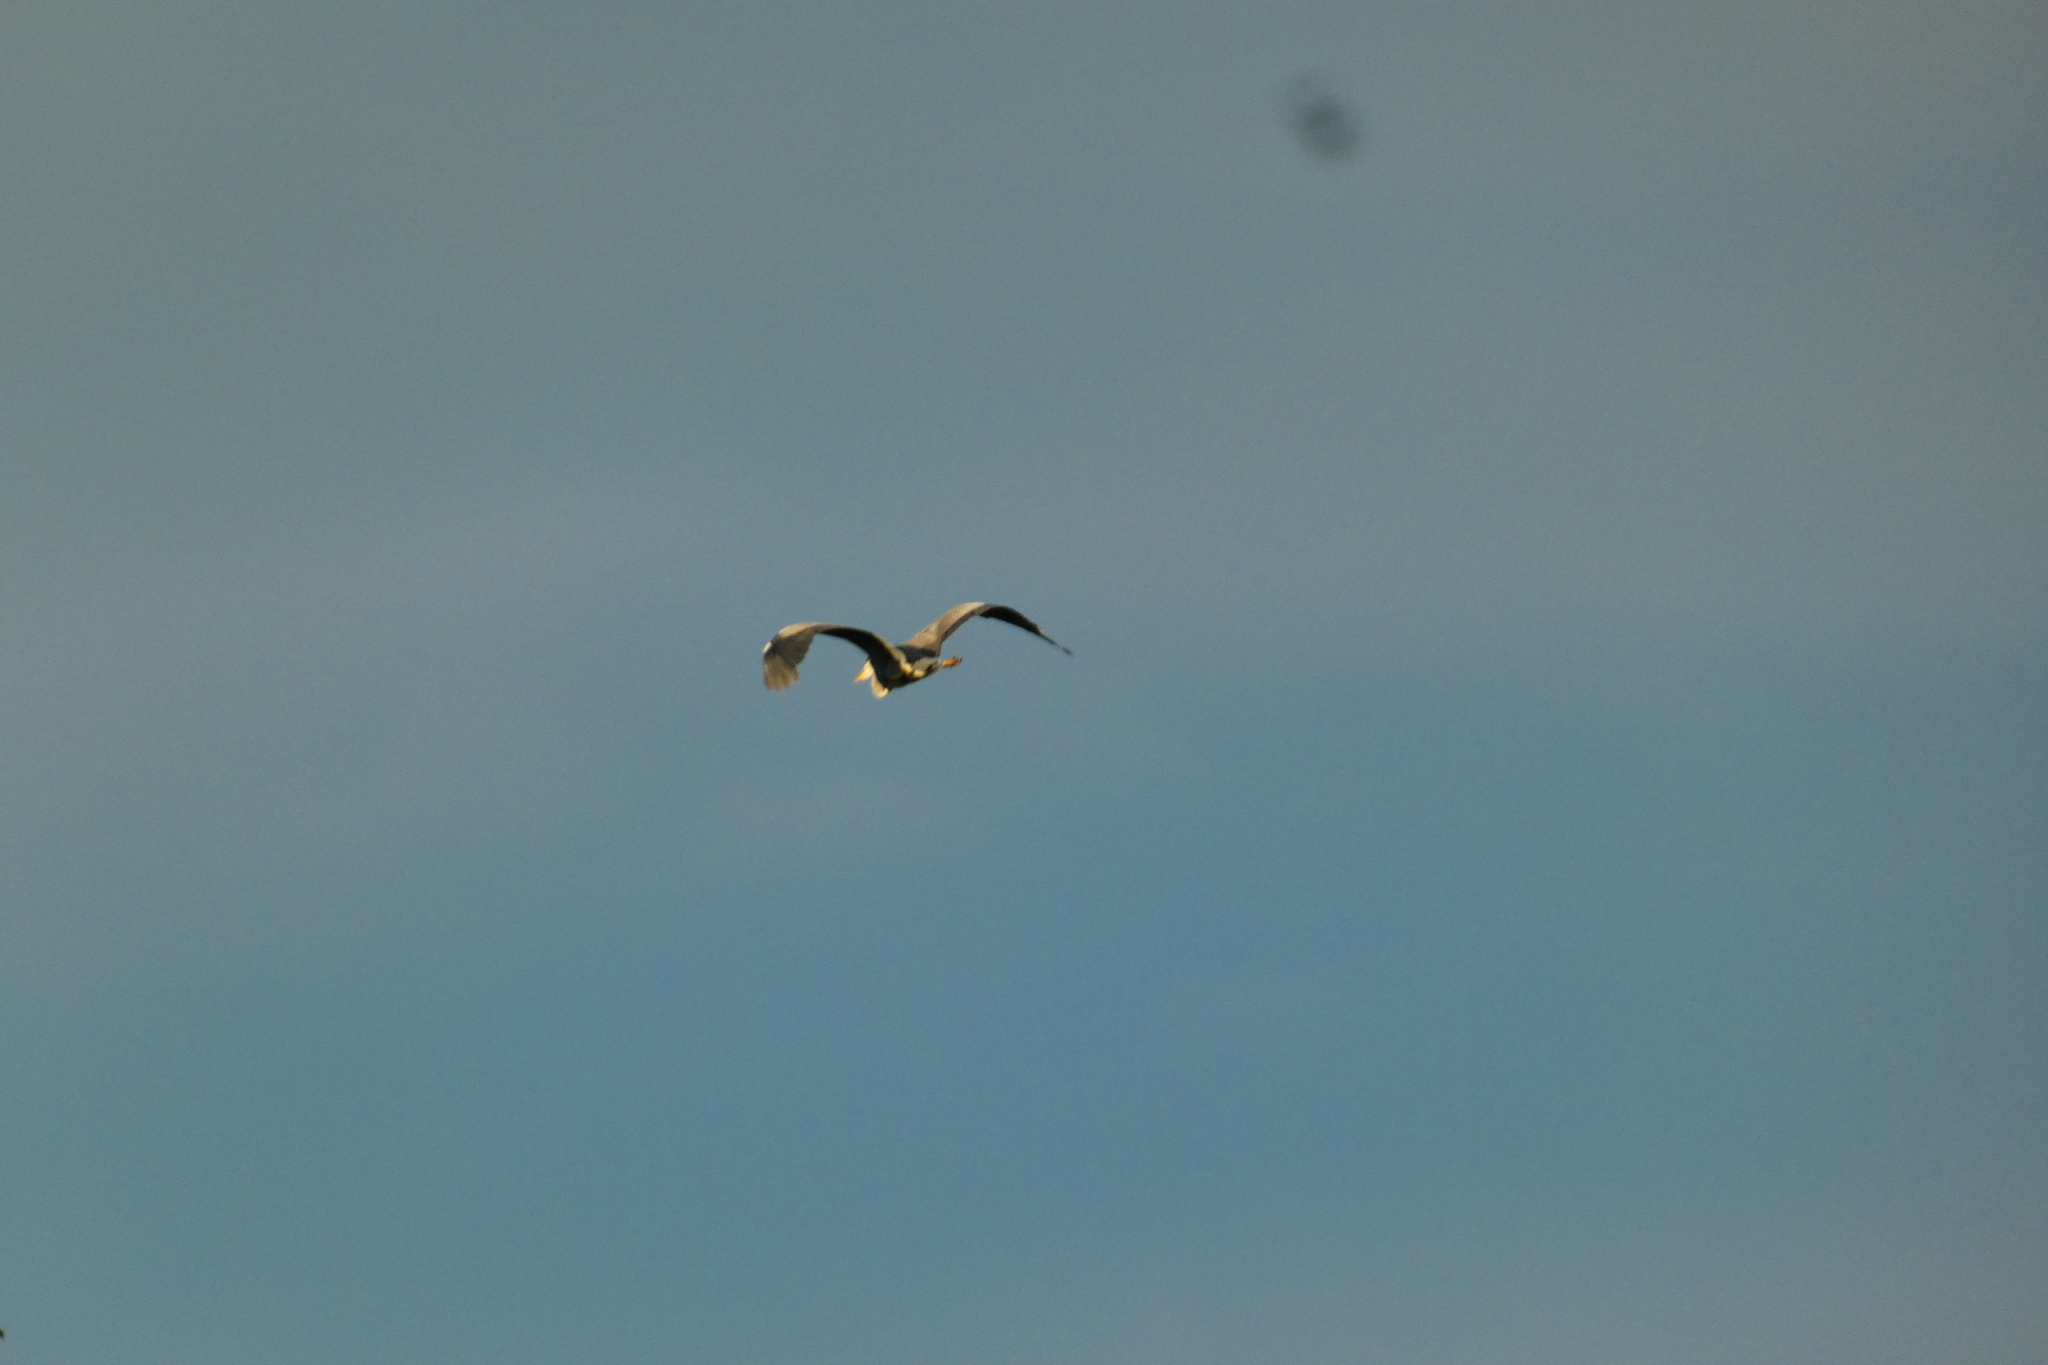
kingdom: Animalia
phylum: Chordata
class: Aves
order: Pelecaniformes
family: Ardeidae
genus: Ardea
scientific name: Ardea cinerea
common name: Grey heron
